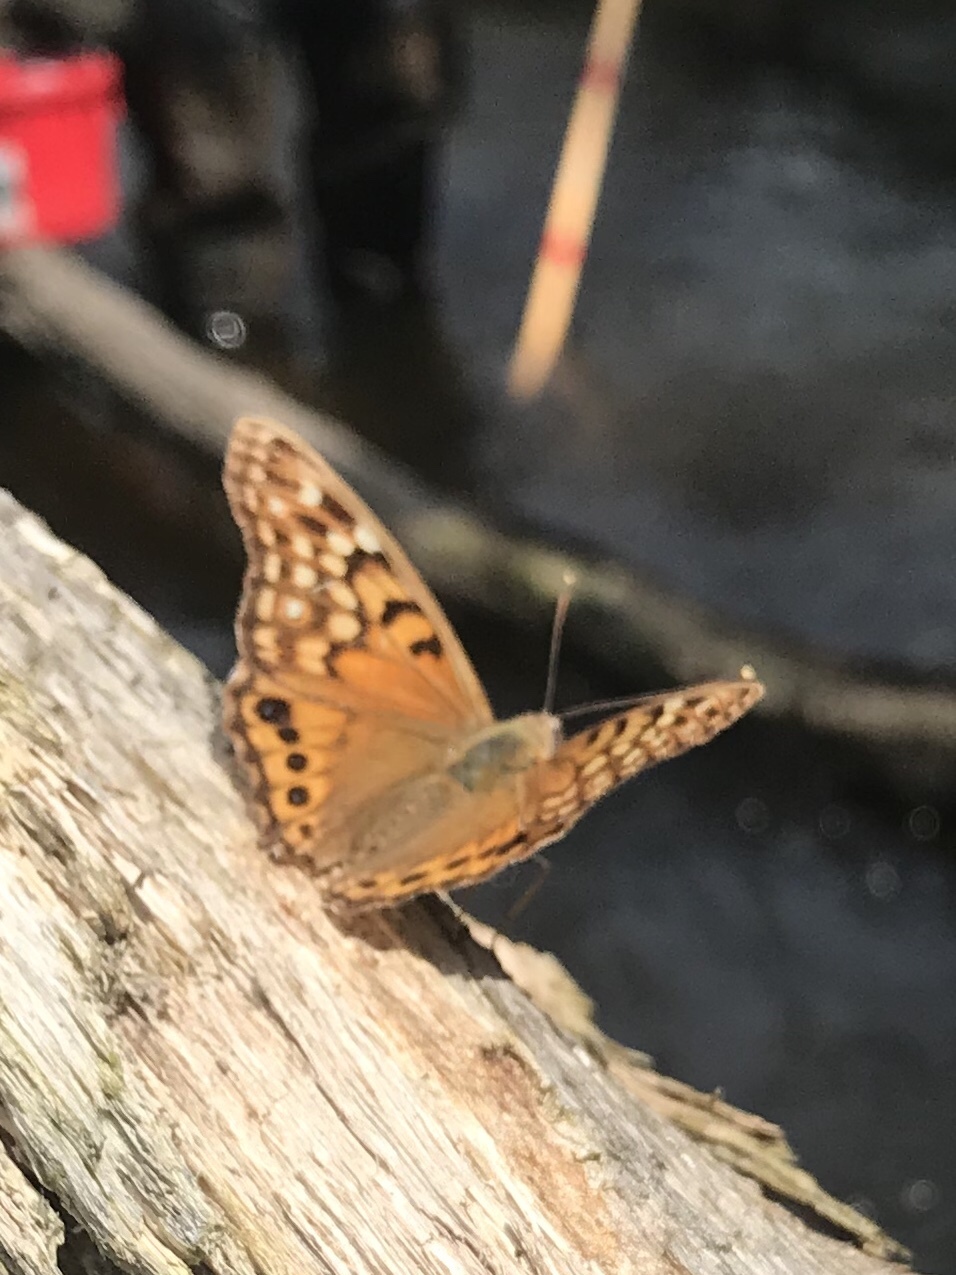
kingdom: Animalia
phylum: Arthropoda
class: Insecta
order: Lepidoptera
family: Nymphalidae
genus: Asterocampa
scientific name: Asterocampa clyton
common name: Tawny emperor
